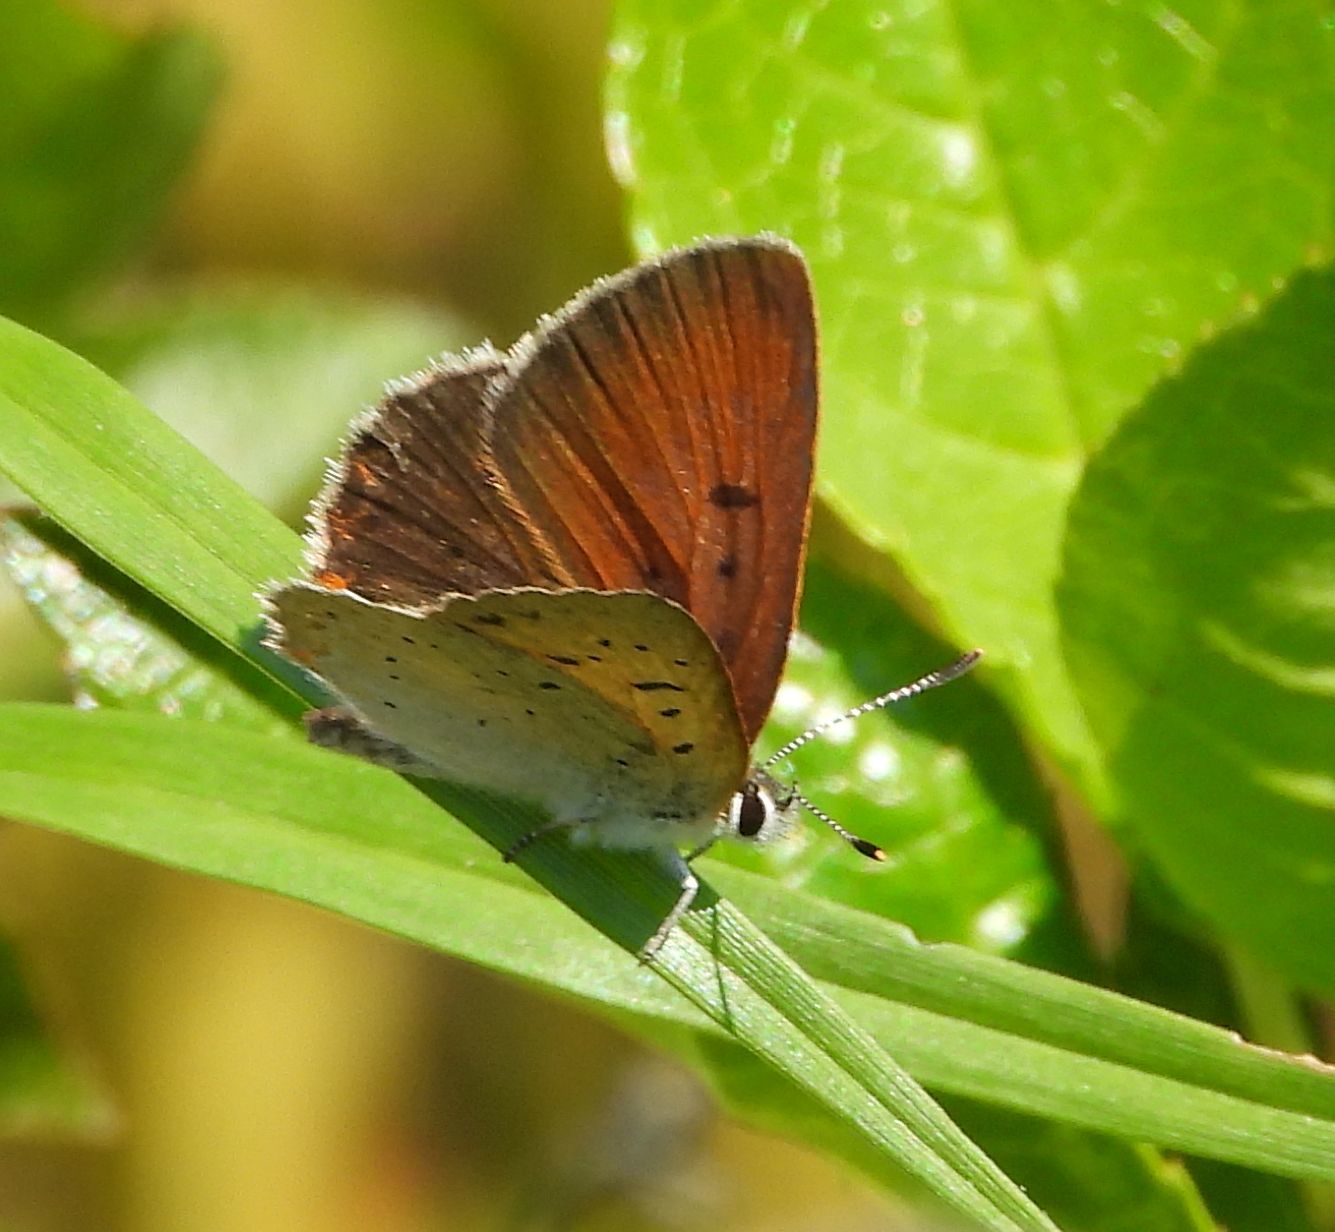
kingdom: Animalia
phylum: Arthropoda
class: Insecta
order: Lepidoptera
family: Lycaenidae
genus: Tharsalea
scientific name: Tharsalea epixanthe
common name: Bog copper
